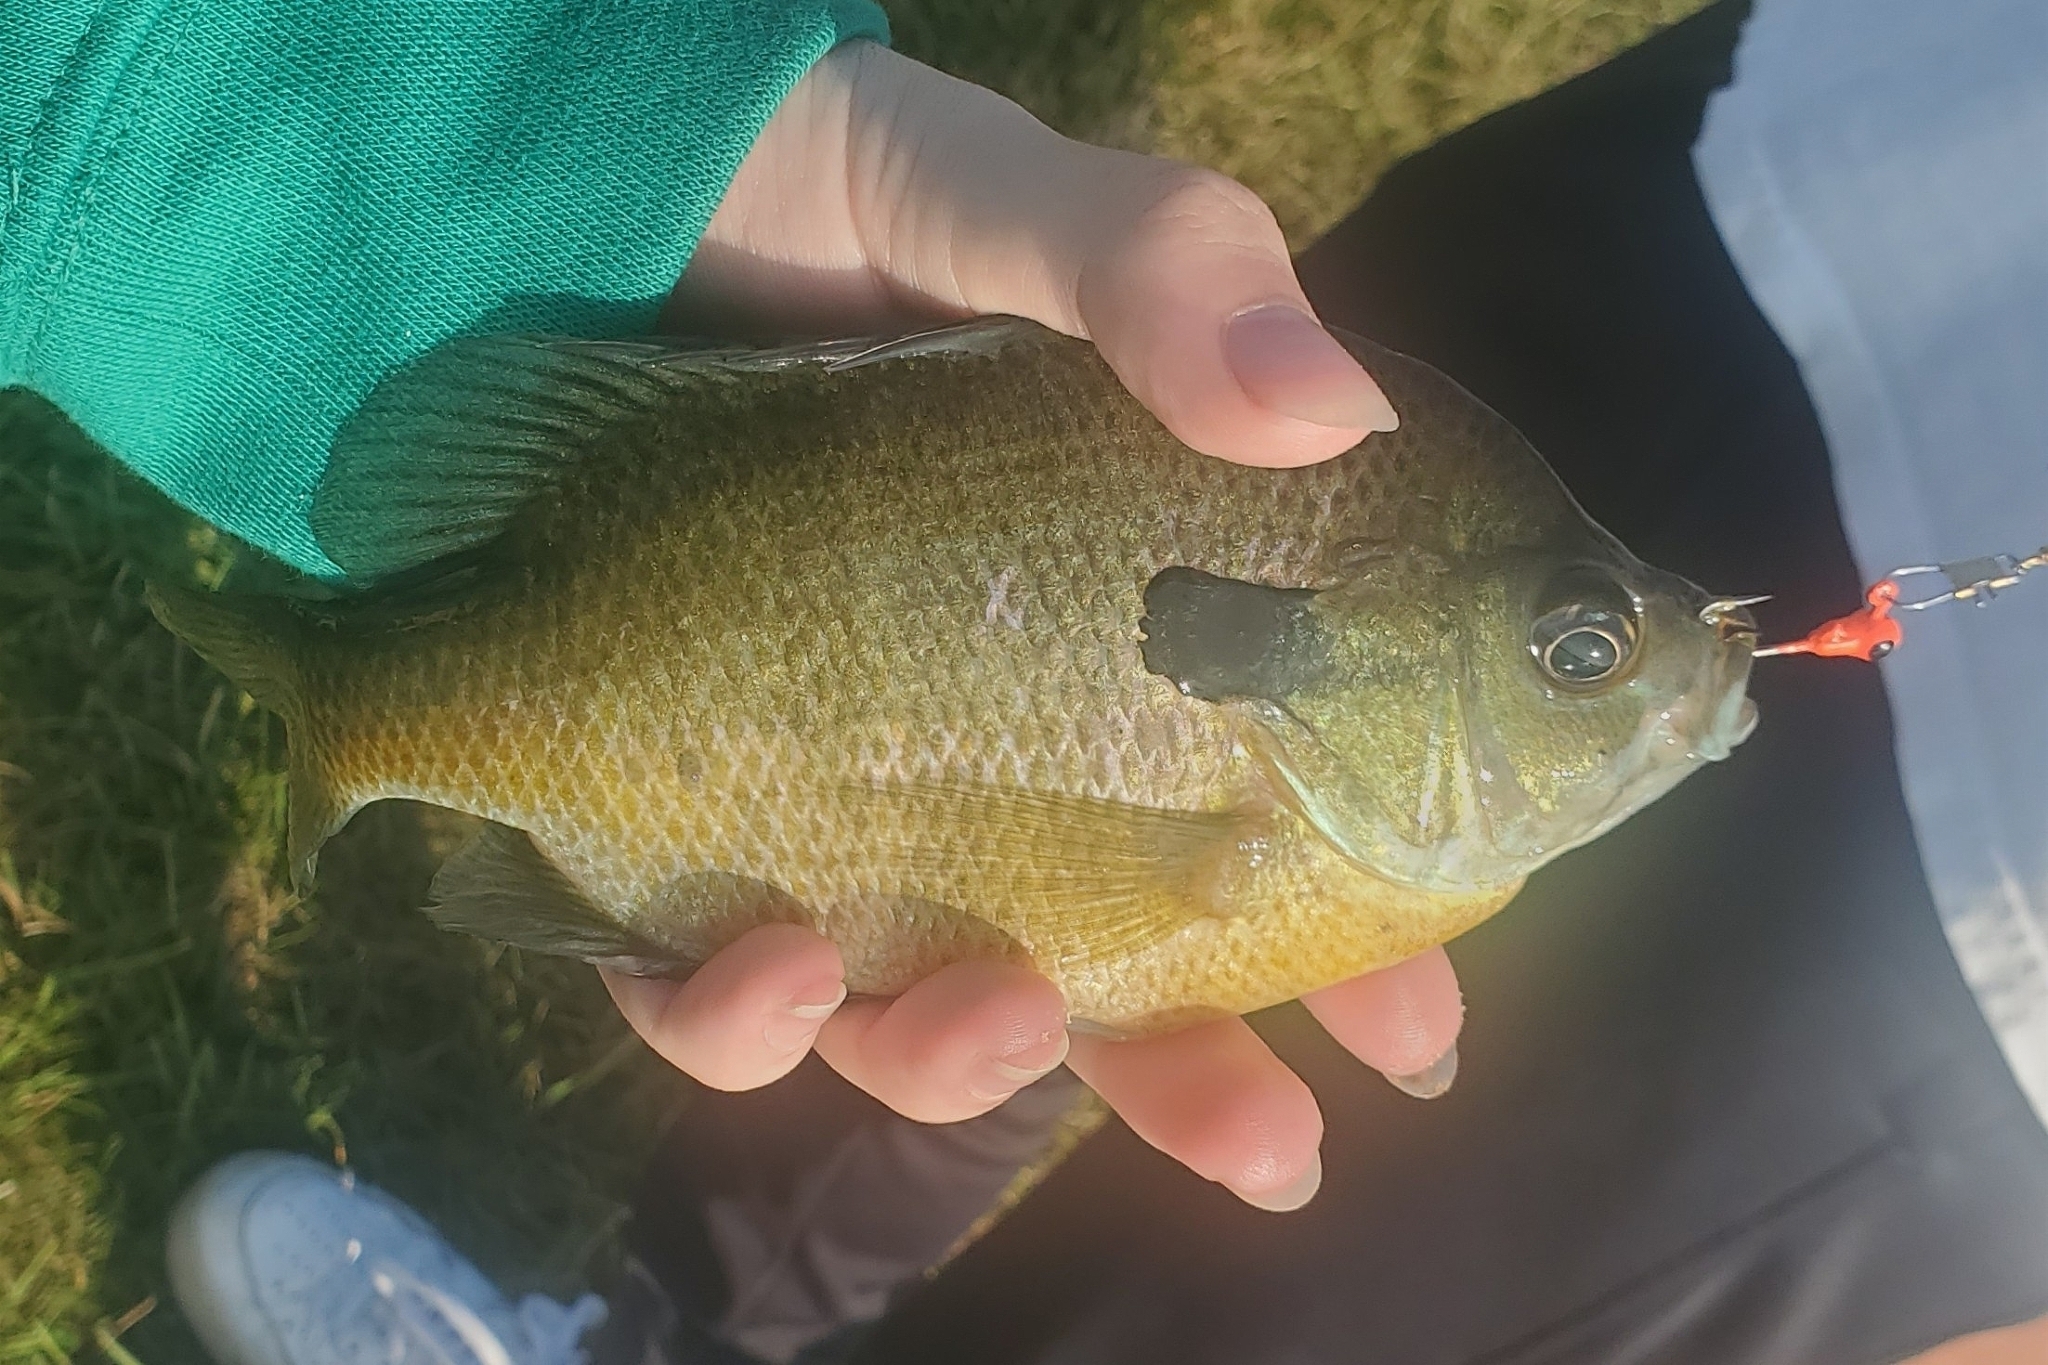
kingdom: Animalia
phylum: Chordata
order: Perciformes
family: Centrarchidae
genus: Lepomis
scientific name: Lepomis macrochirus
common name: Bluegill
